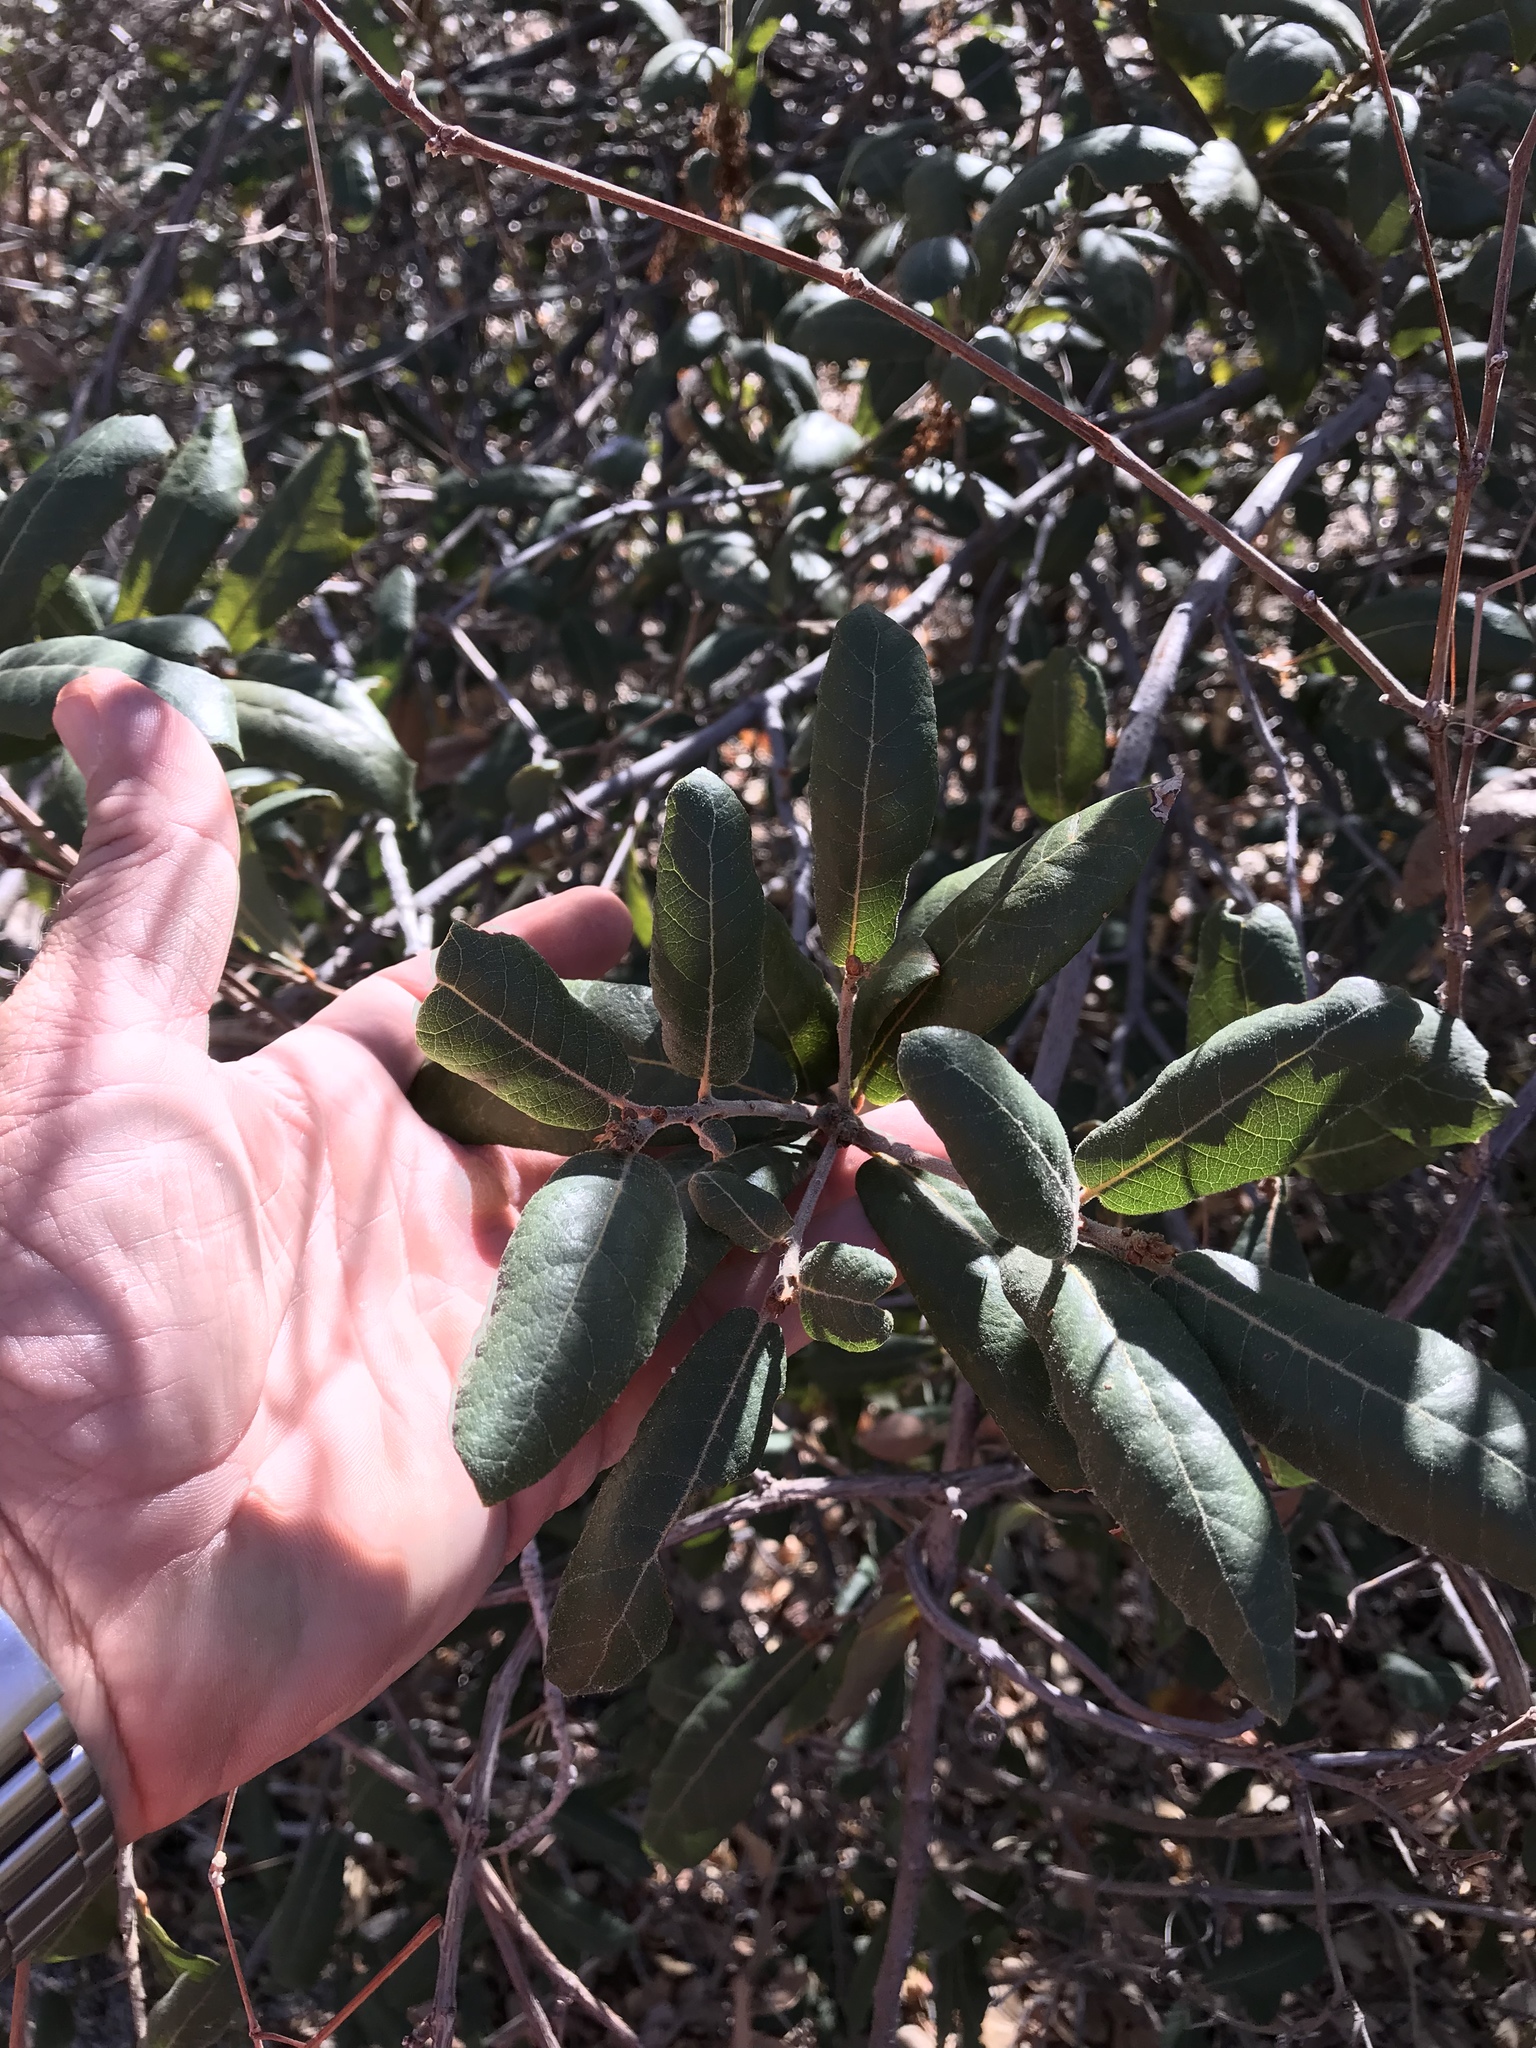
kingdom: Plantae
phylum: Tracheophyta
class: Magnoliopsida
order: Fagales
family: Fagaceae
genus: Quercus
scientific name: Quercus rugosa
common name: Netleaf oak
